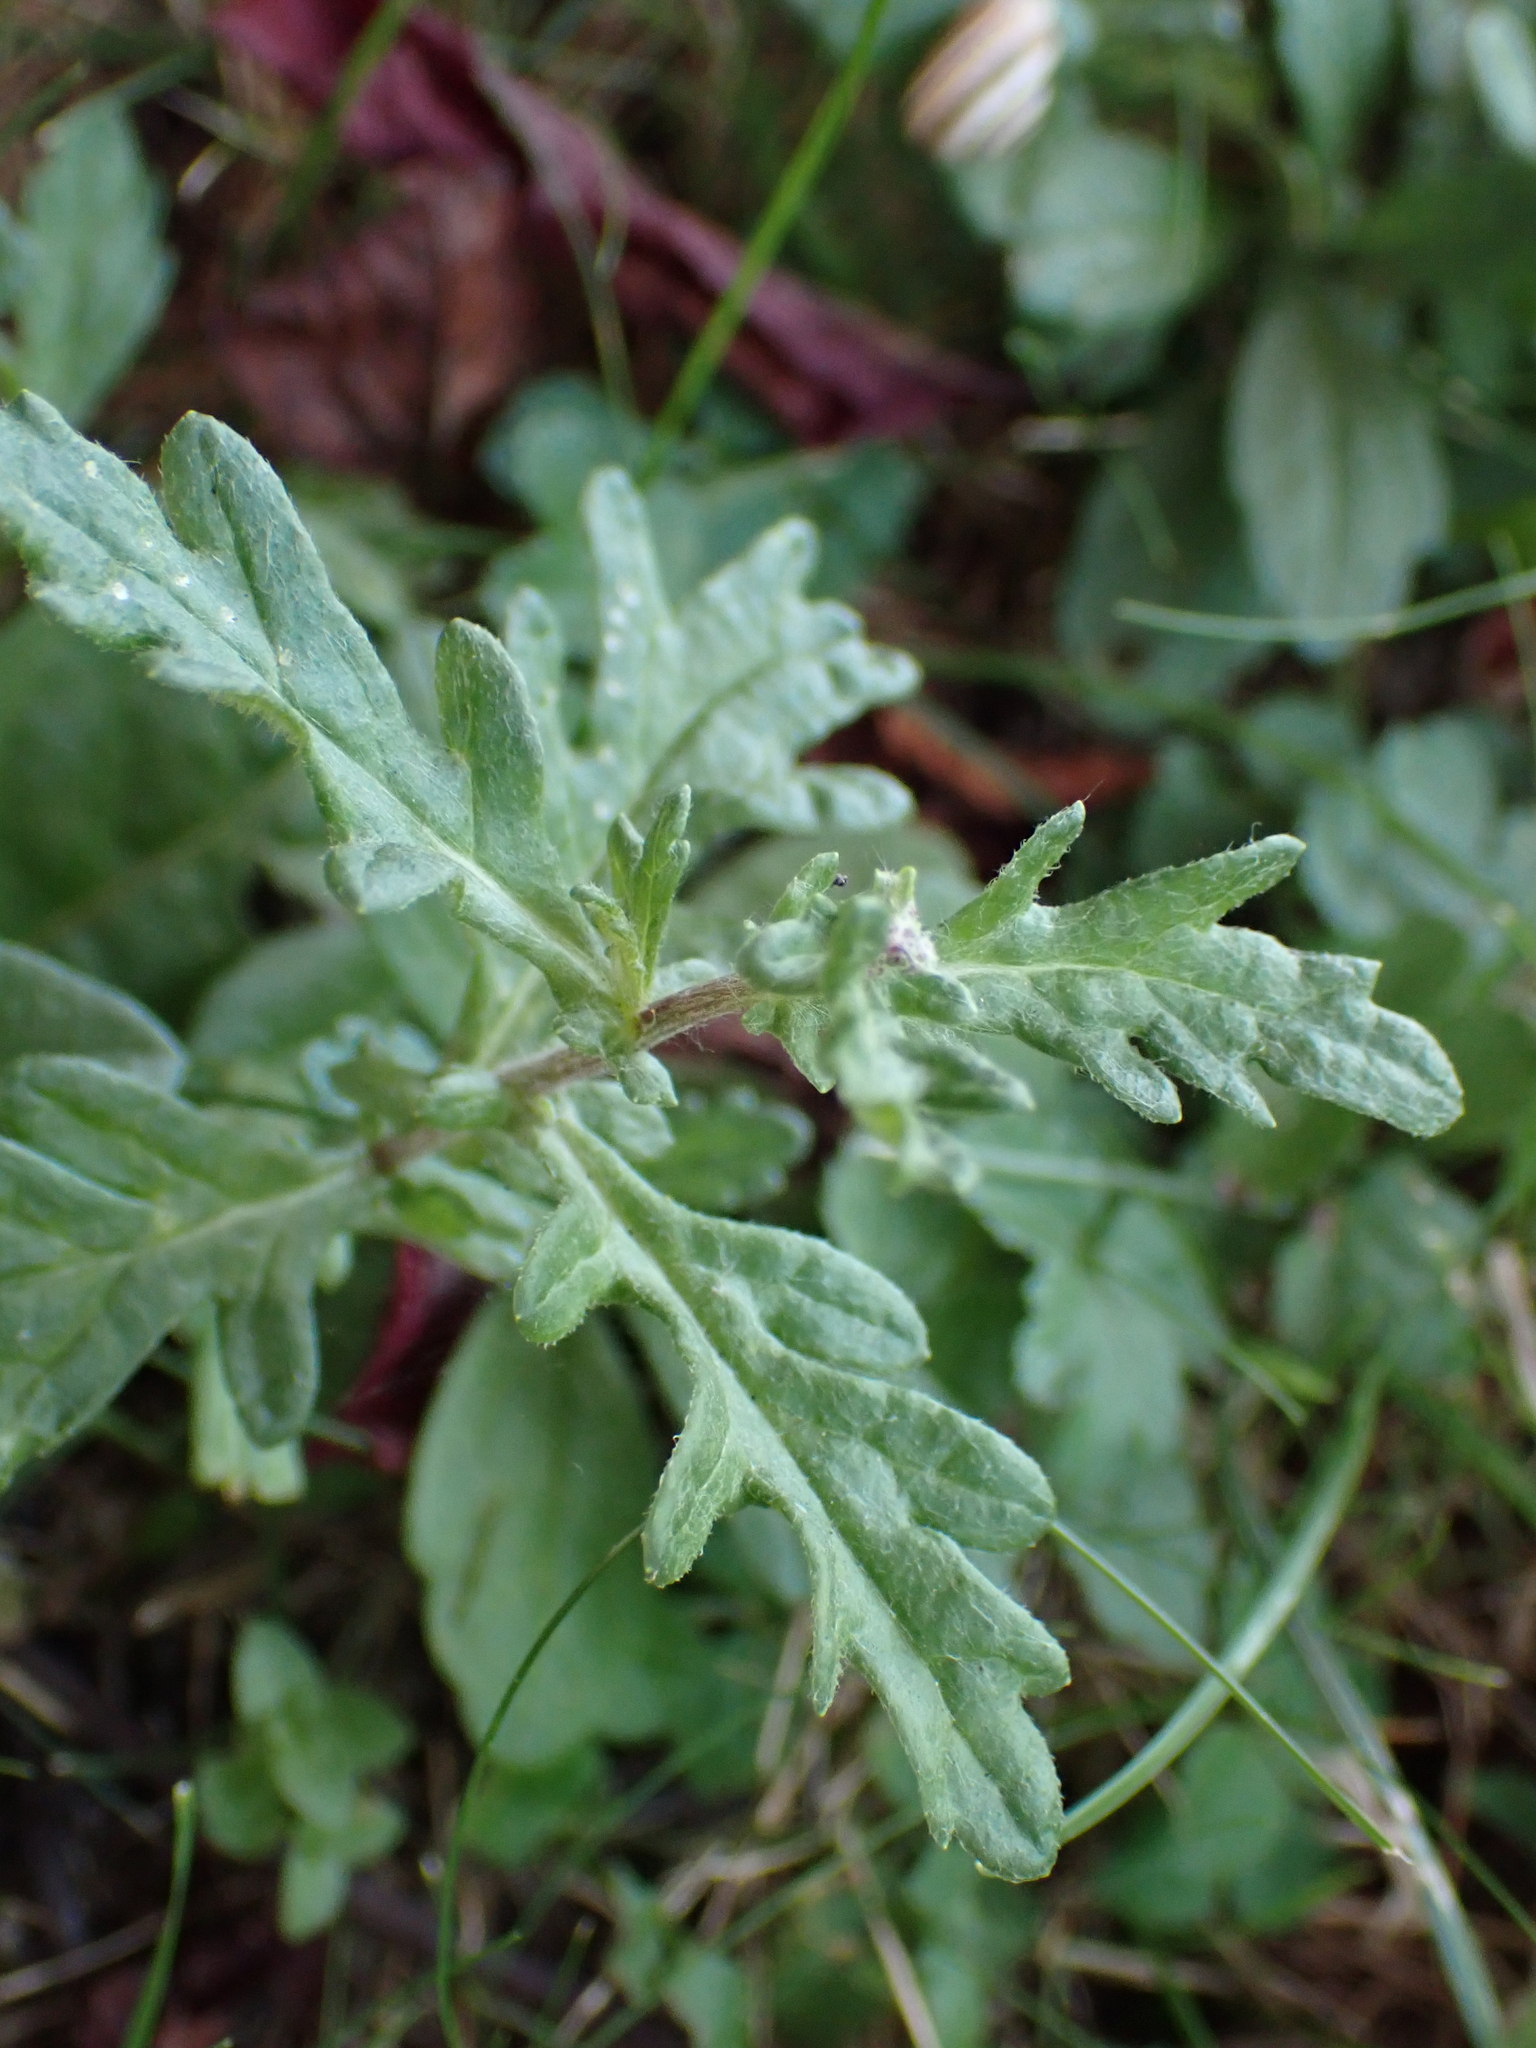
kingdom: Plantae
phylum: Tracheophyta
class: Magnoliopsida
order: Asterales
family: Asteraceae
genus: Jacobaea
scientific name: Jacobaea erucifolia
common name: Hoary ragwort
